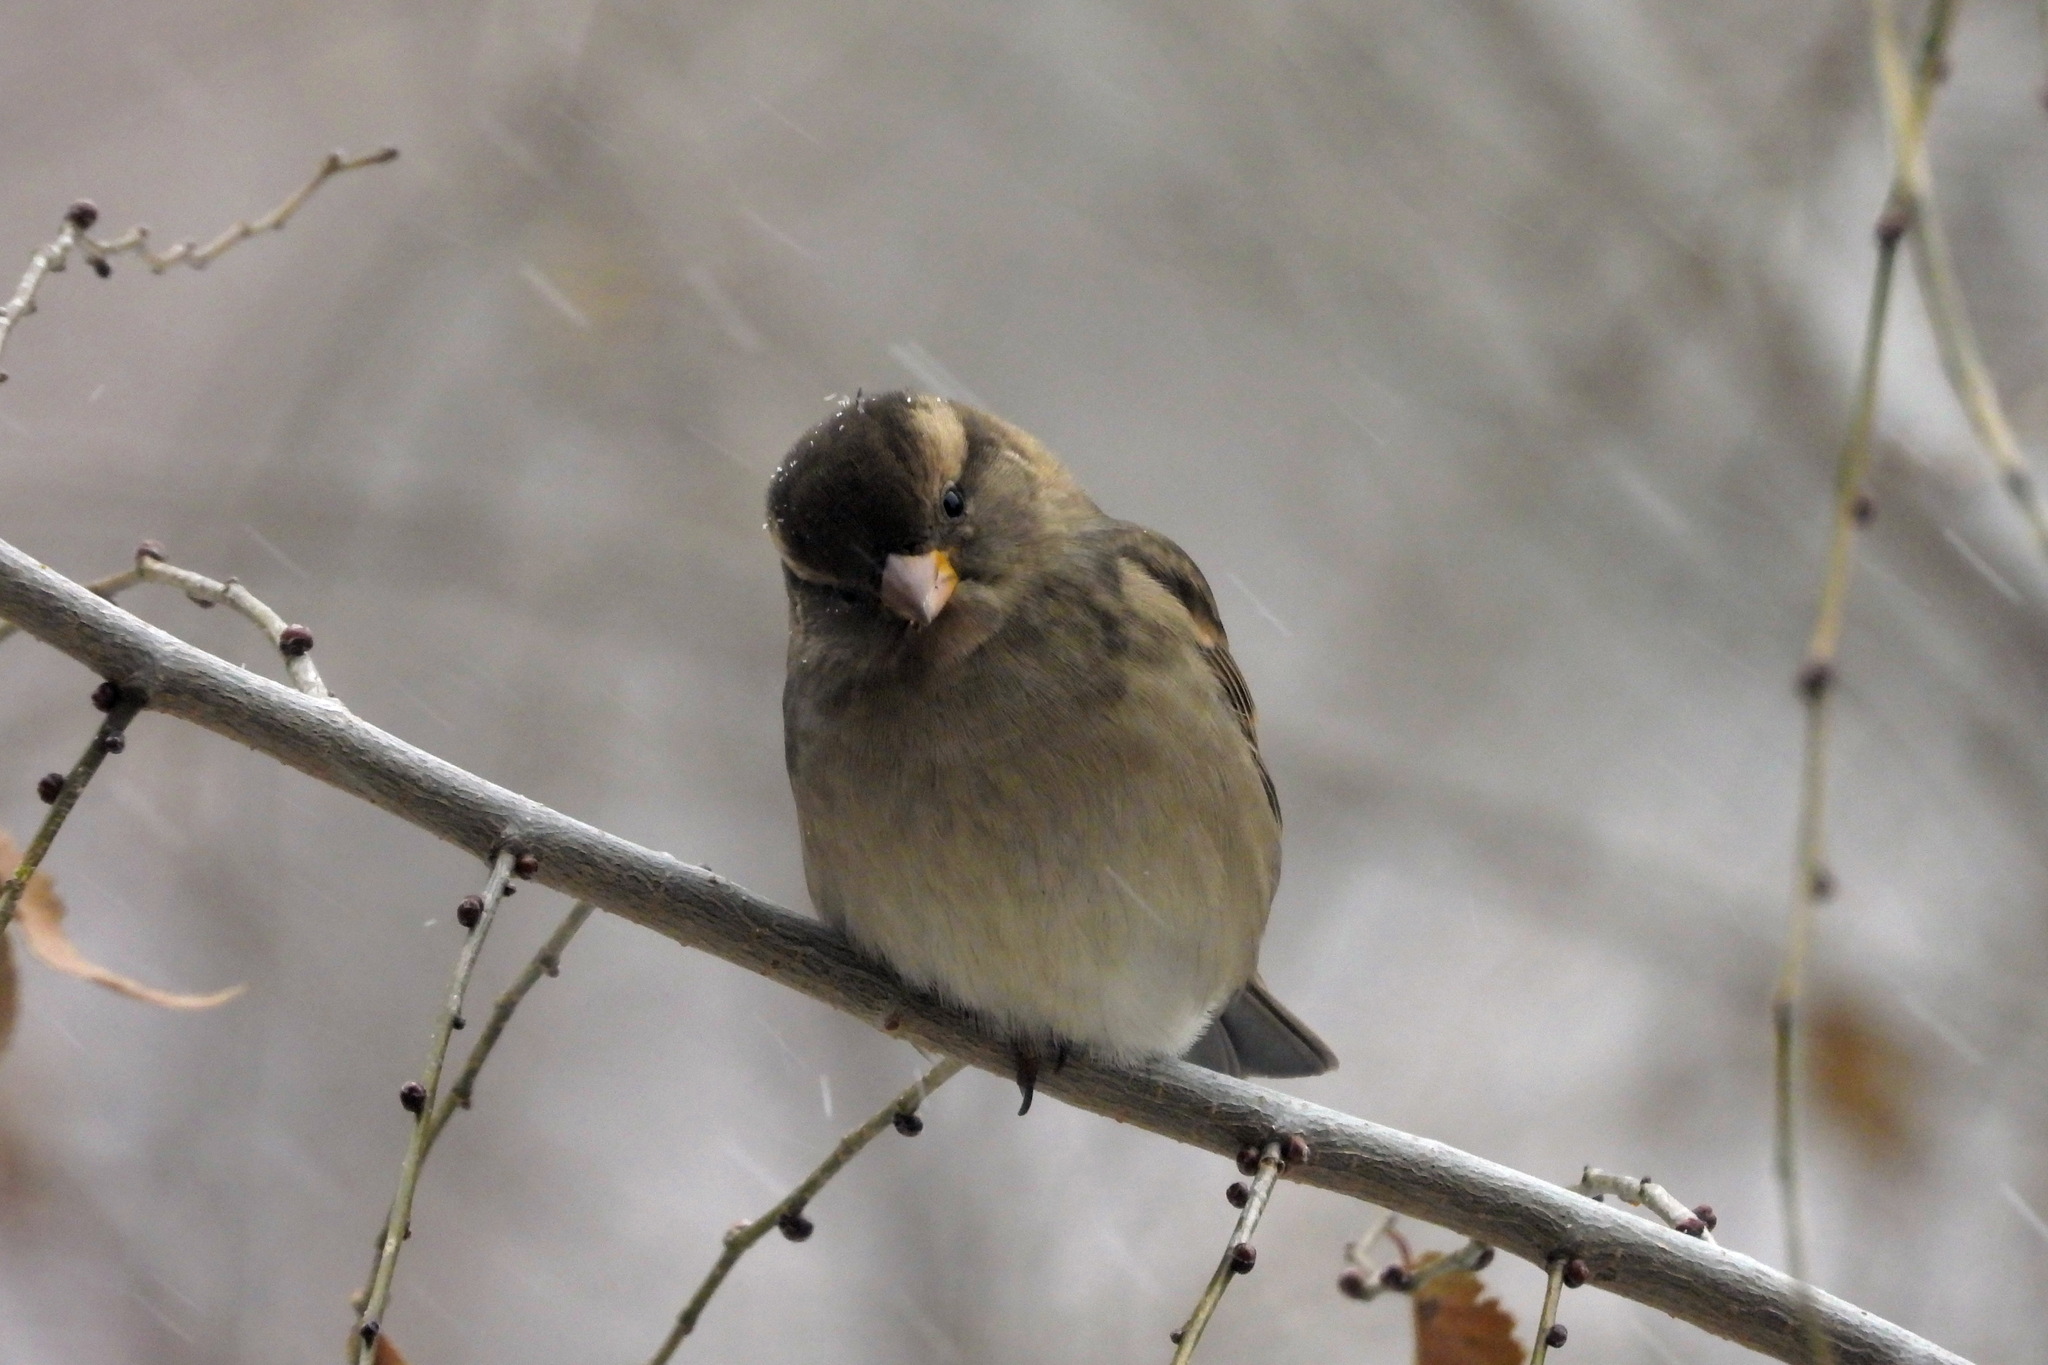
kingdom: Animalia
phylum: Chordata
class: Aves
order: Passeriformes
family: Passeridae
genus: Passer
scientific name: Passer domesticus
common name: House sparrow
